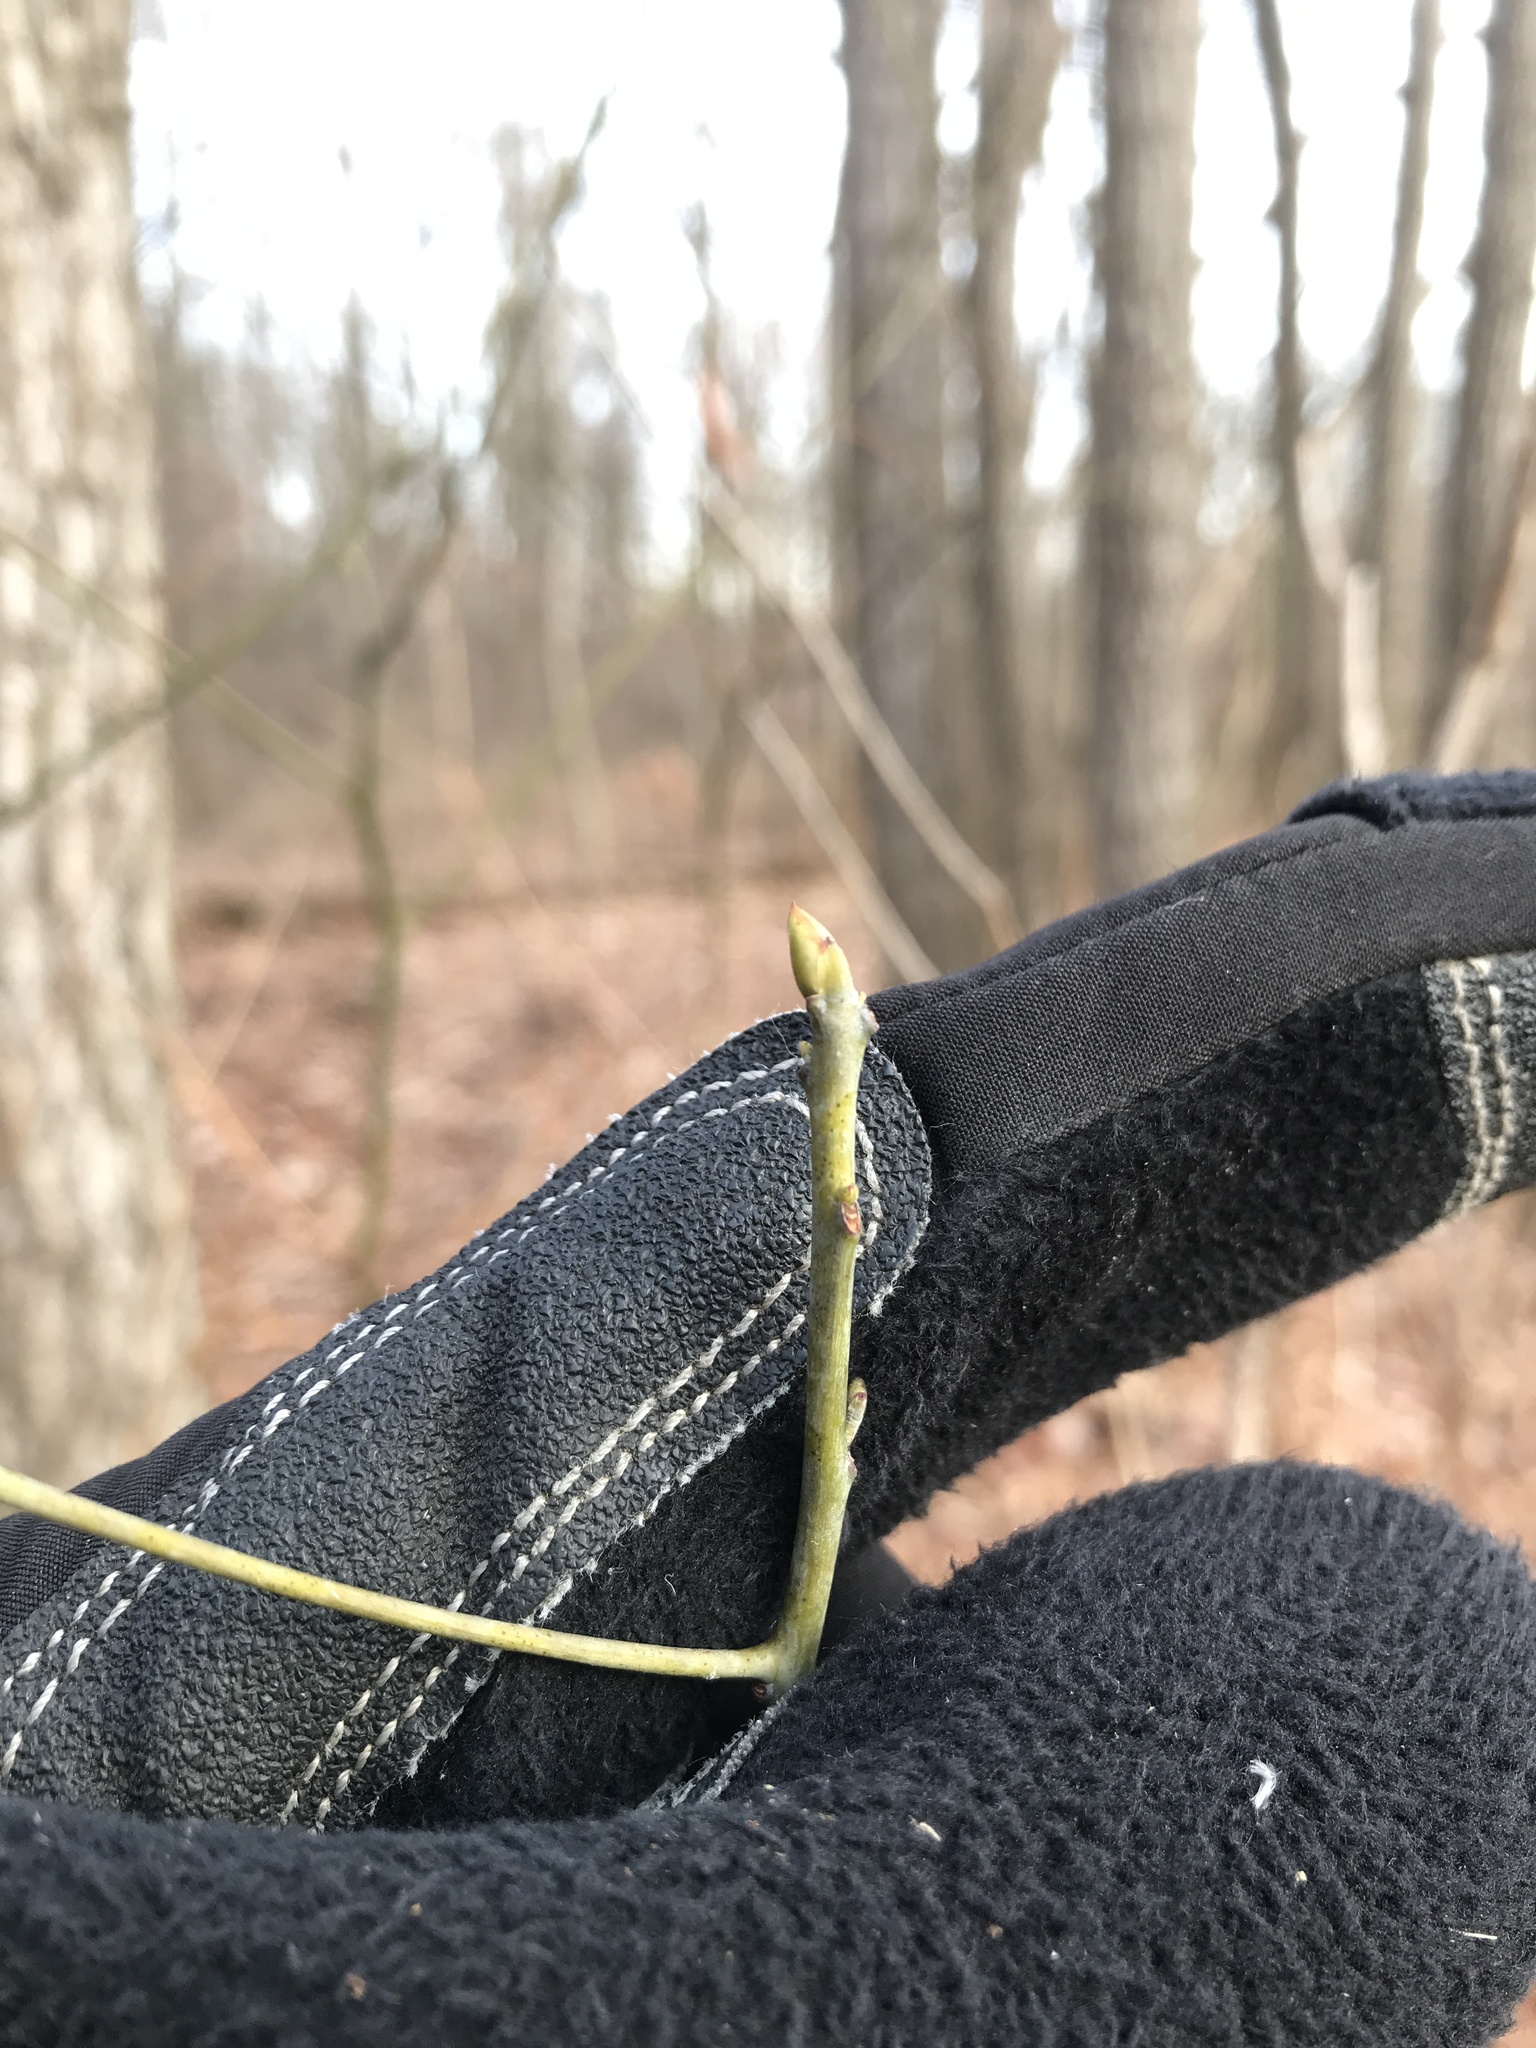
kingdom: Plantae
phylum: Tracheophyta
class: Magnoliopsida
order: Laurales
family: Lauraceae
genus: Sassafras
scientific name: Sassafras albidum
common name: Sassafras
